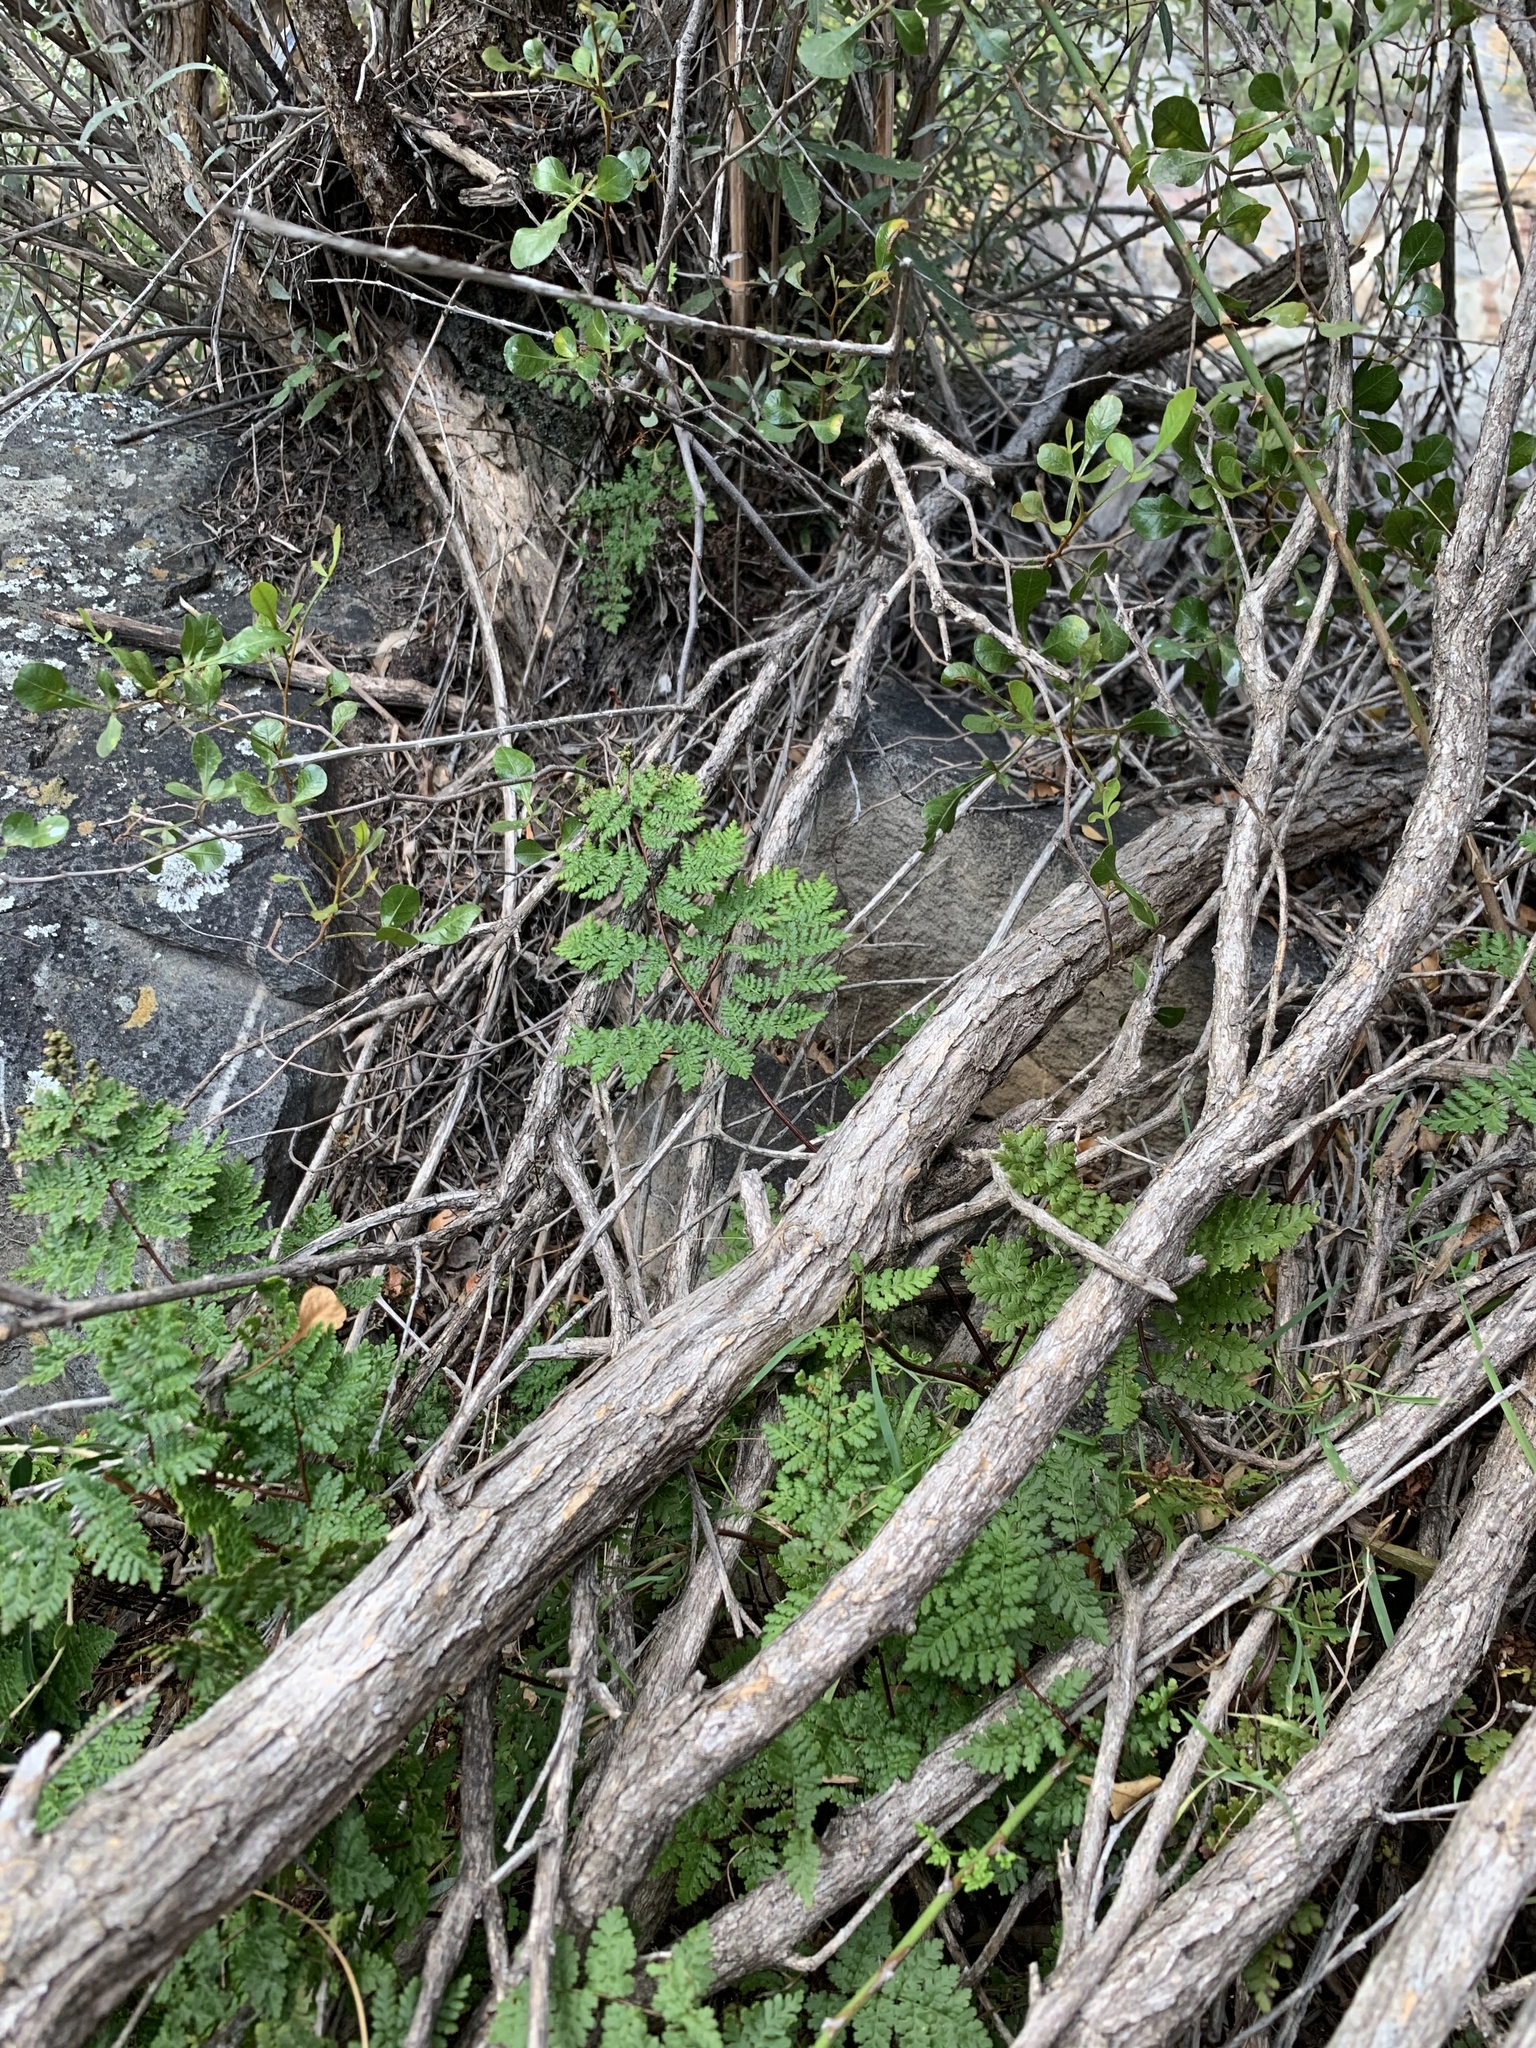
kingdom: Plantae
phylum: Tracheophyta
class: Polypodiopsida
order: Polypodiales
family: Pteridaceae
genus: Cheilanthes
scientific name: Cheilanthes multifida
